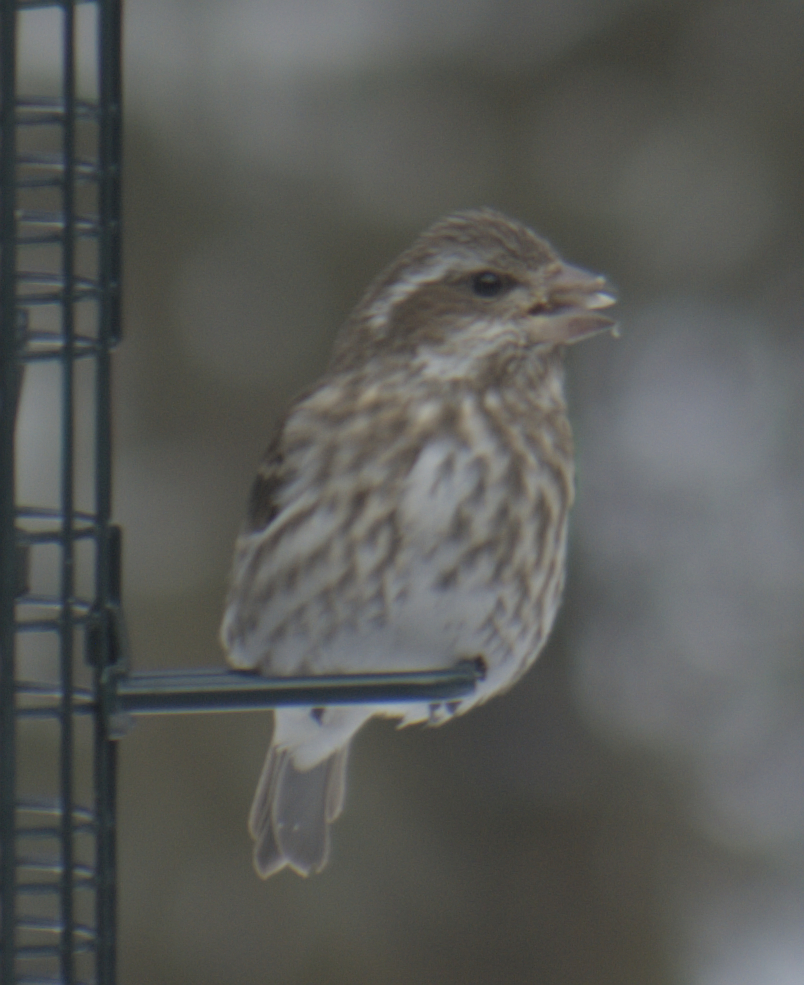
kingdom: Animalia
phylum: Chordata
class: Aves
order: Passeriformes
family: Fringillidae
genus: Haemorhous
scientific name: Haemorhous purpureus
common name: Purple finch
